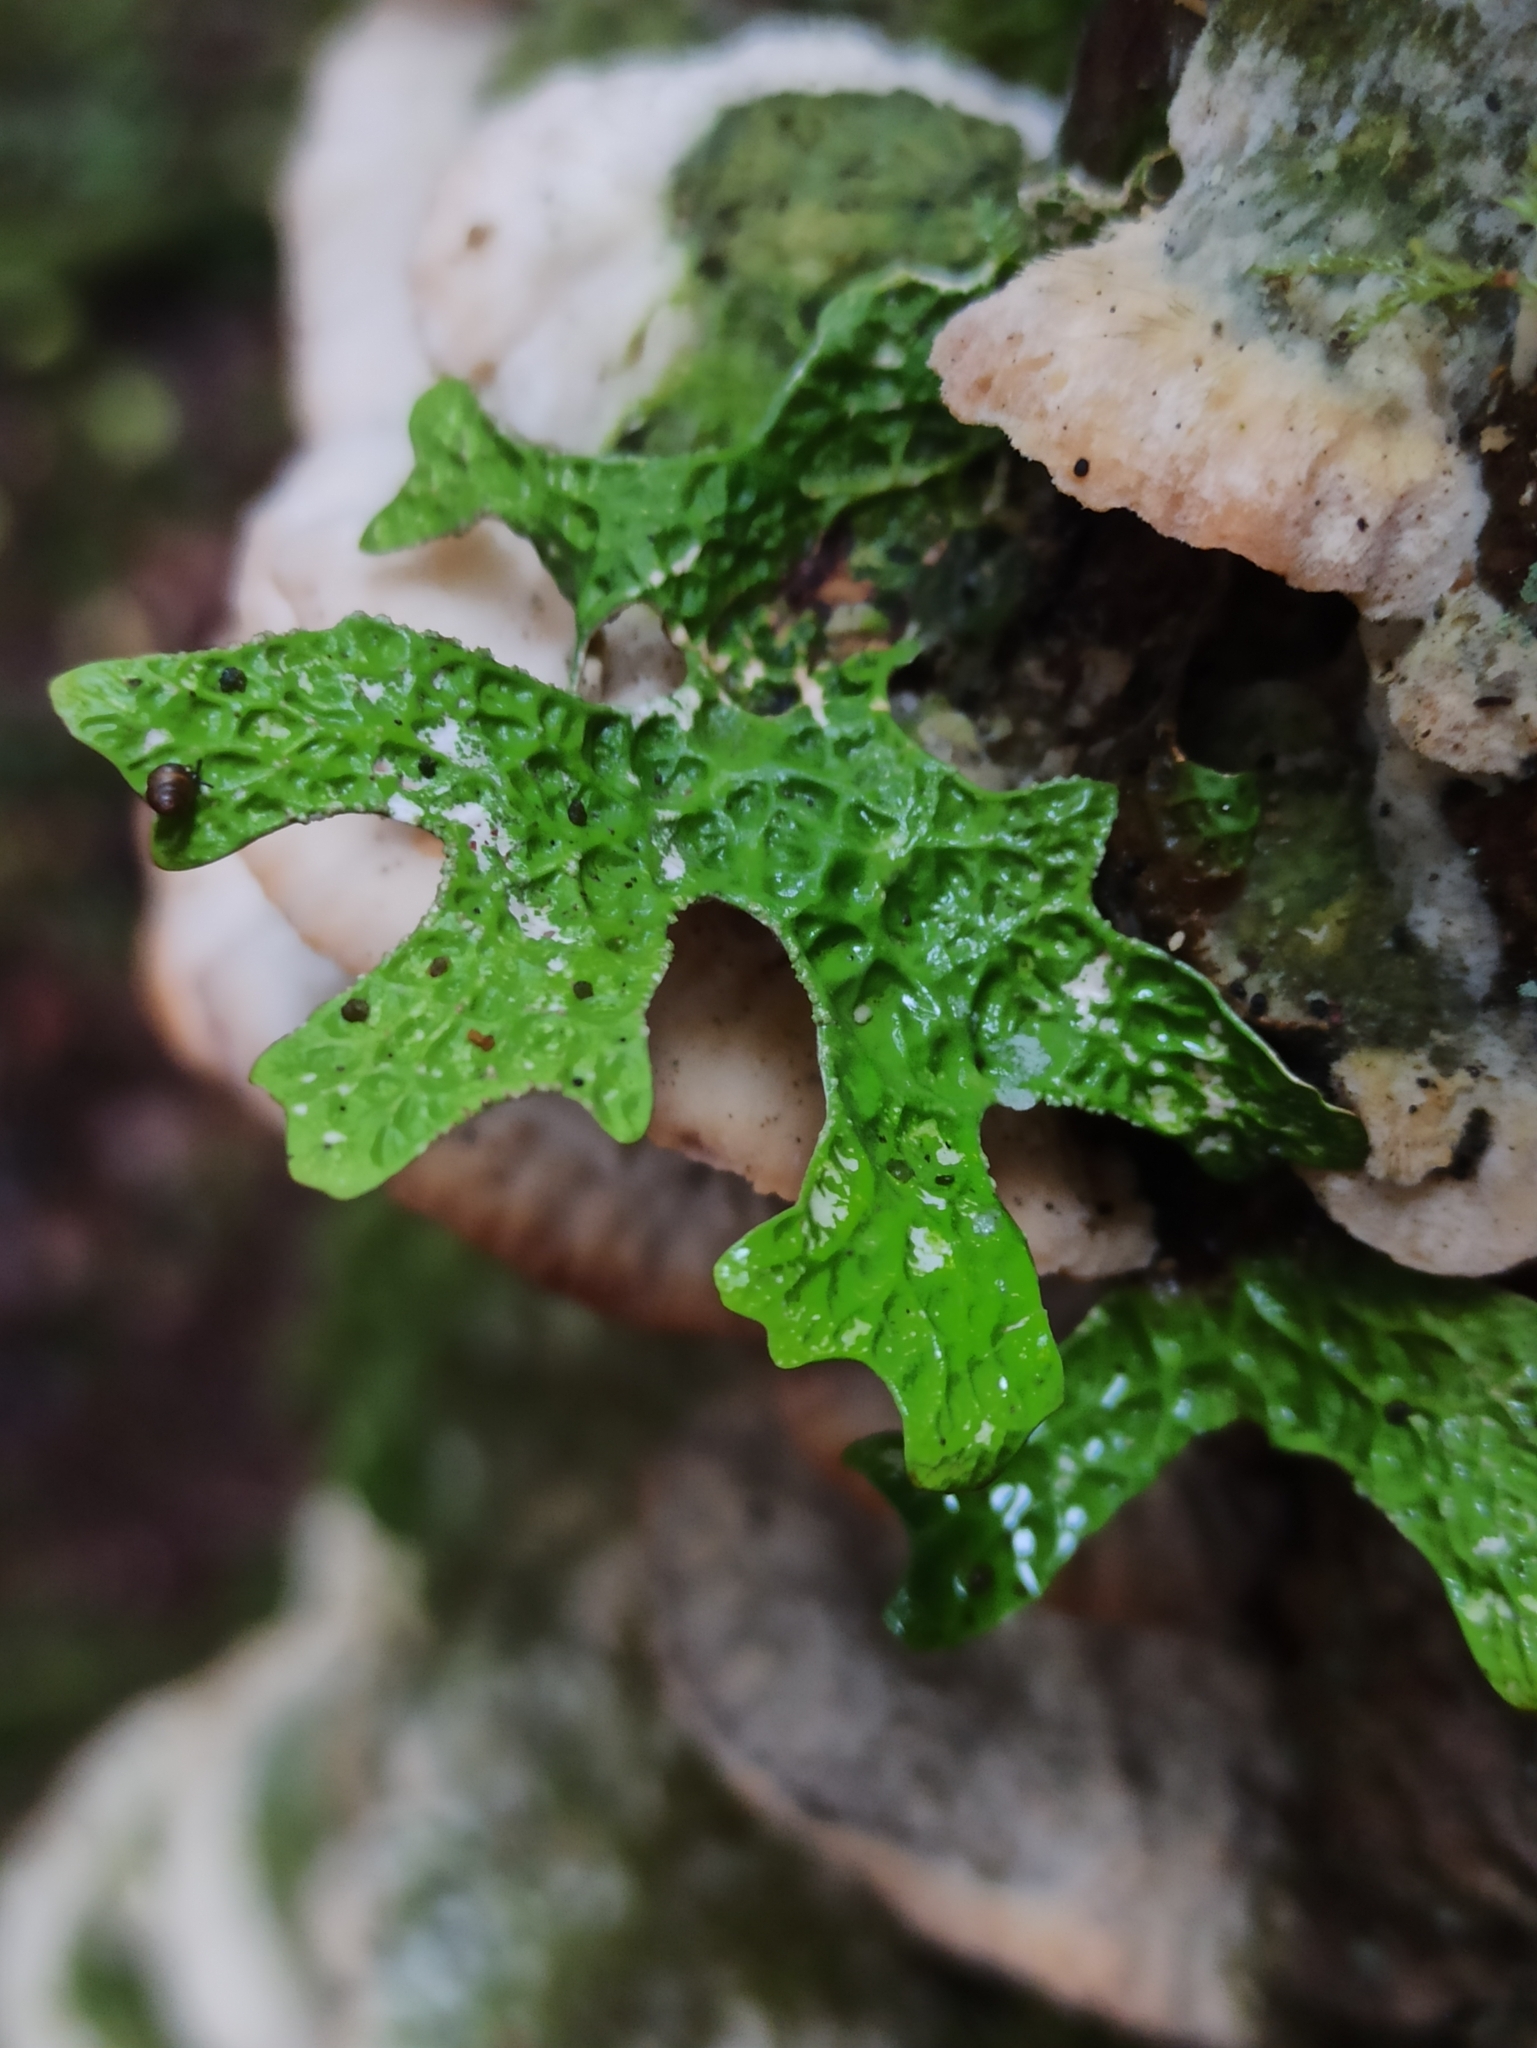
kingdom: Fungi
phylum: Ascomycota
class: Lecanoromycetes
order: Peltigerales
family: Lobariaceae
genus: Lobaria
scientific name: Lobaria pulmonaria
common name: Lungwort
